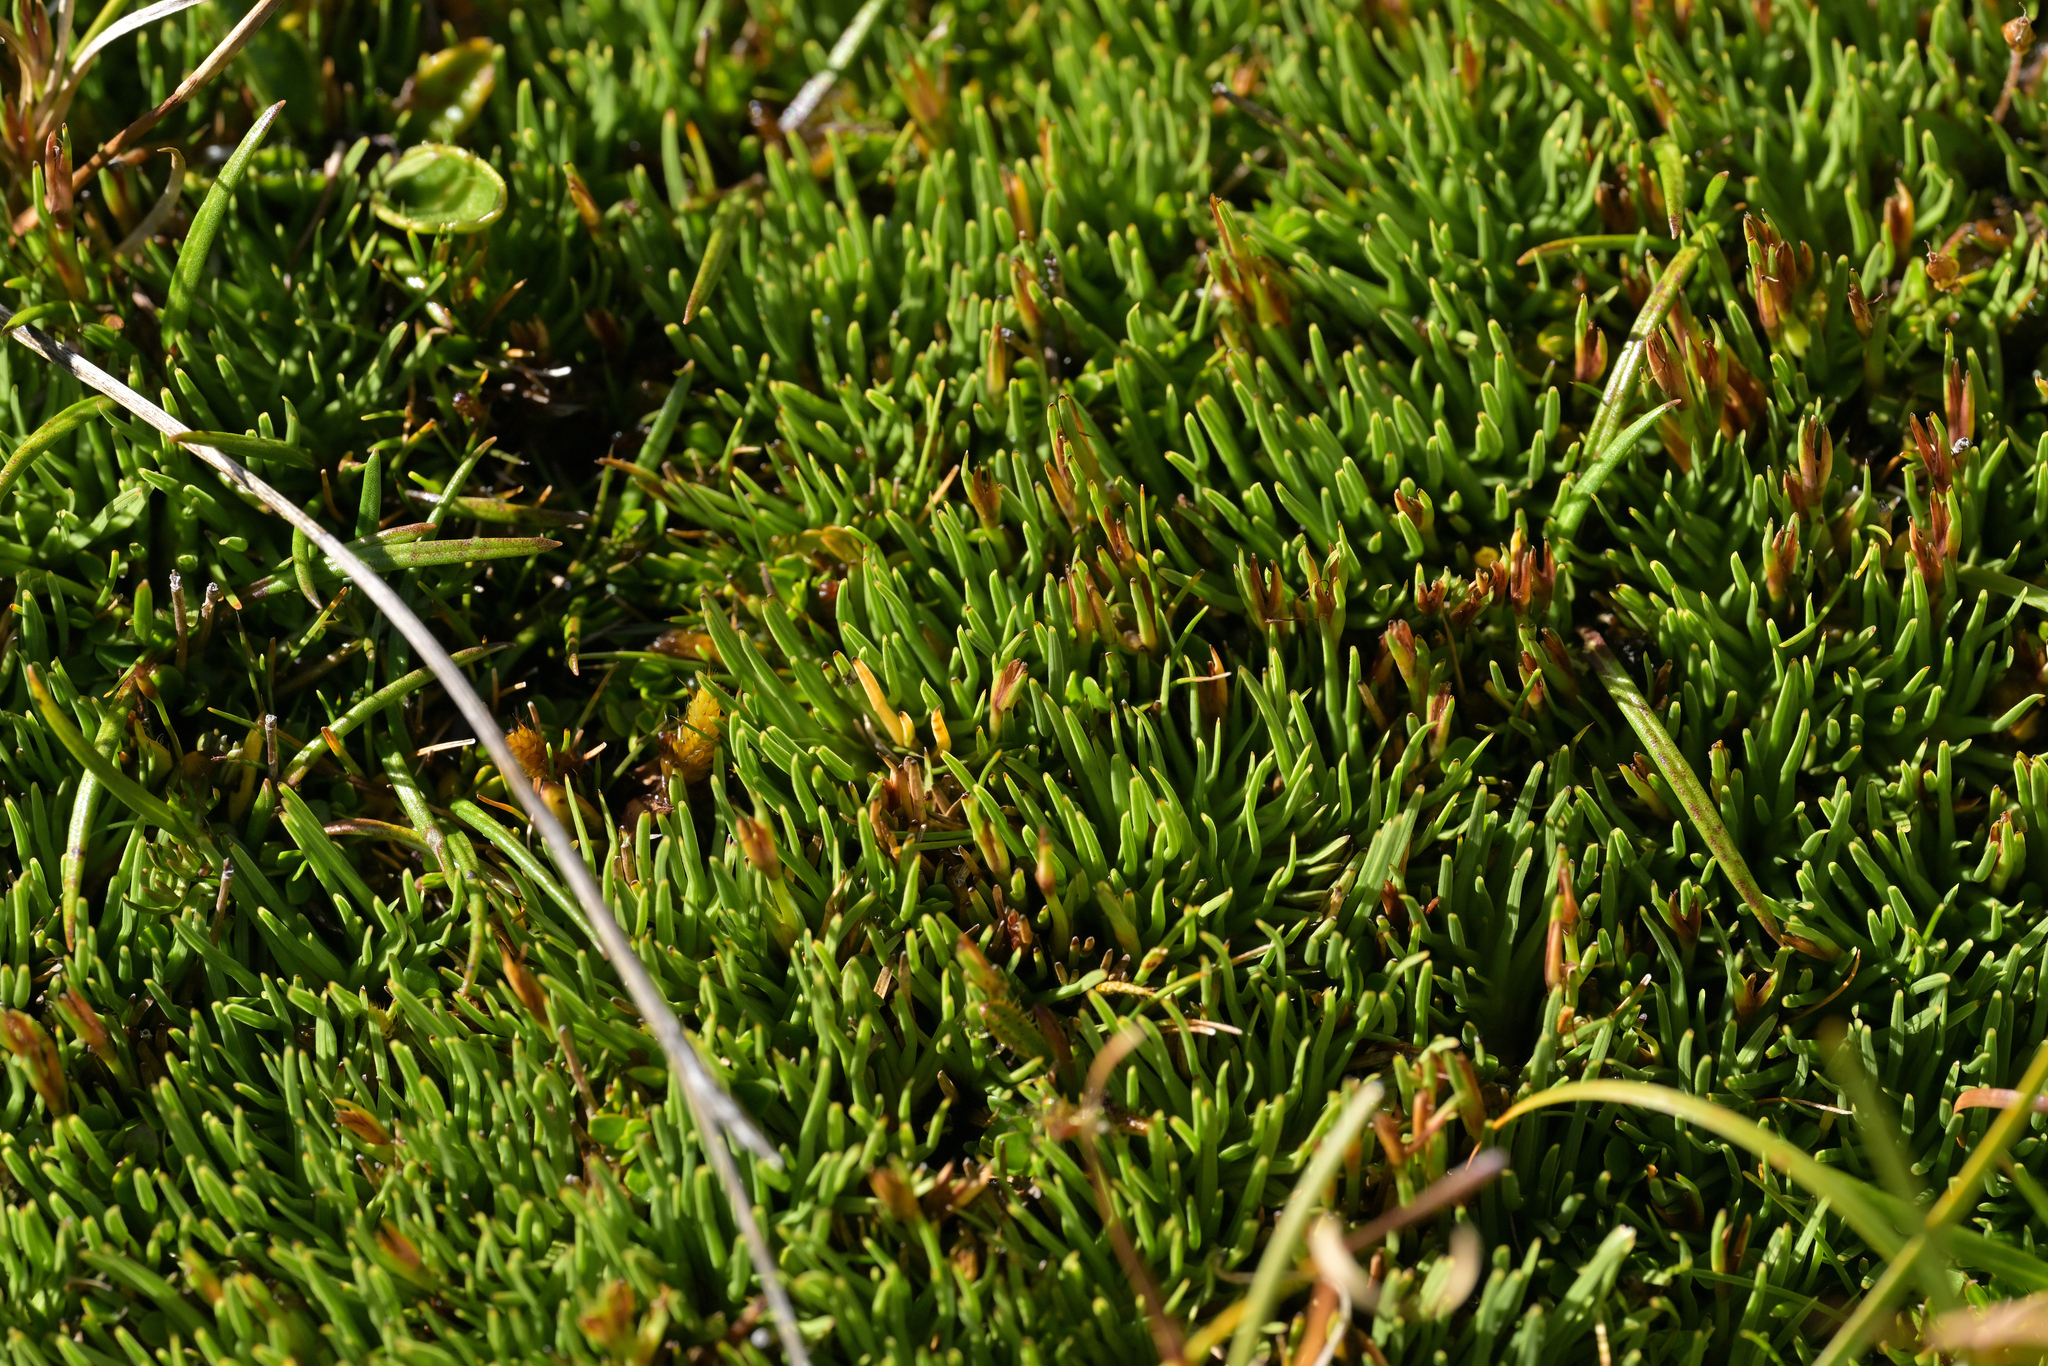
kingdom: Plantae
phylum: Tracheophyta
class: Liliopsida
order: Poales
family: Cyperaceae
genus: Oreobolus
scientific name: Oreobolus pectinatus
